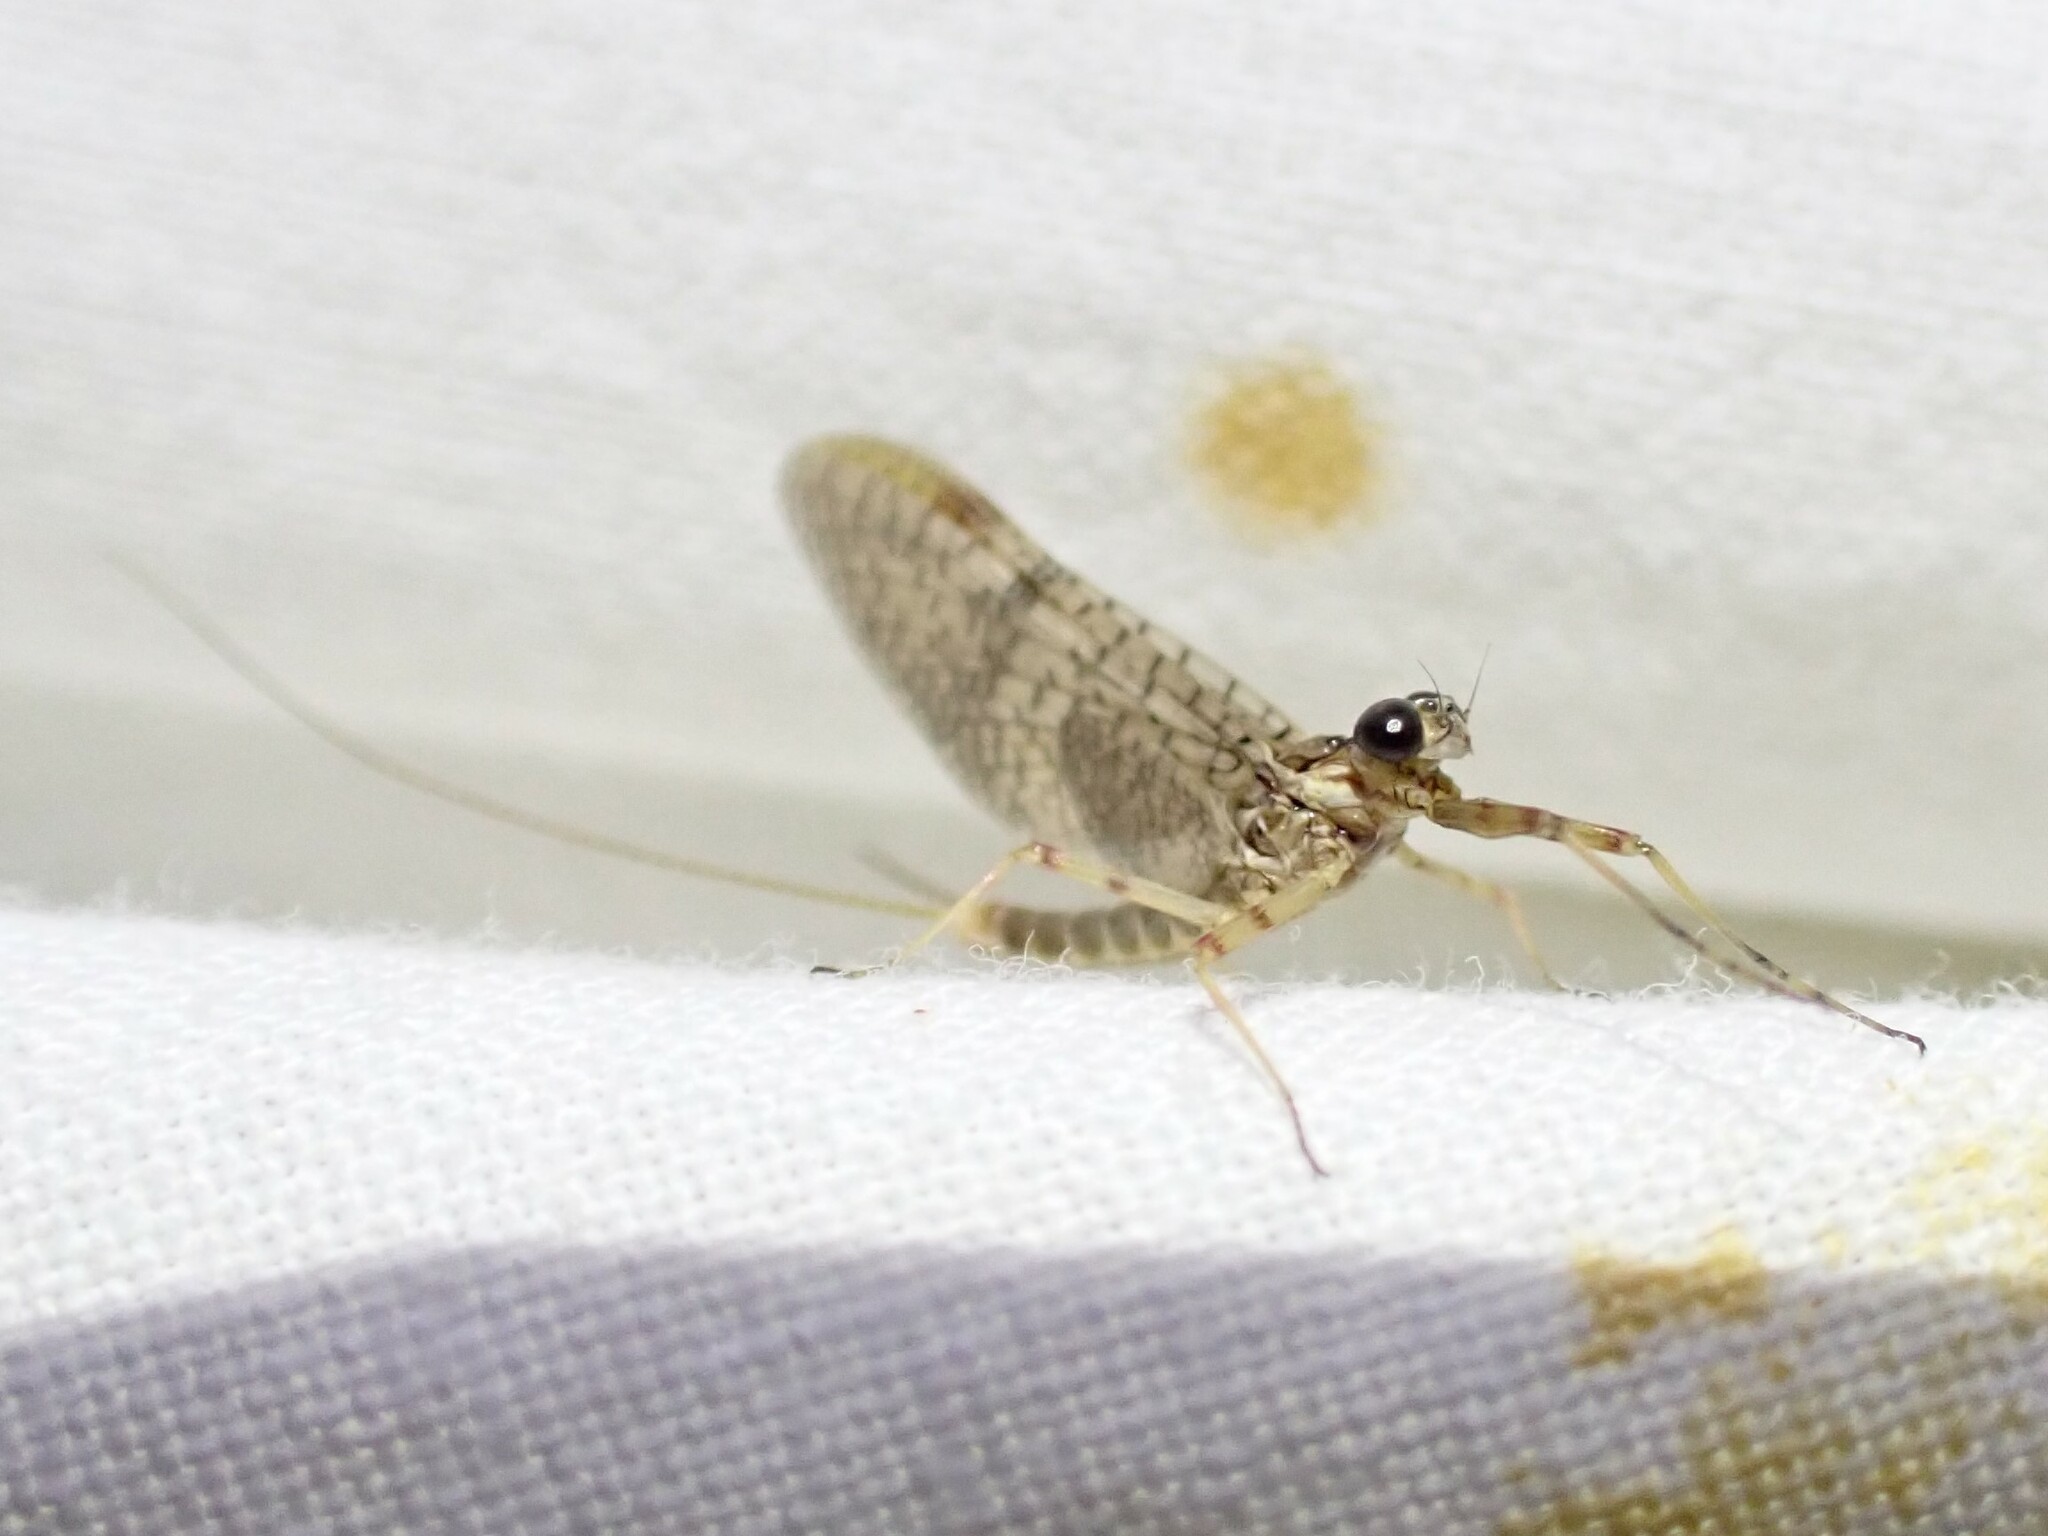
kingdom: Animalia
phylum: Arthropoda
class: Insecta
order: Ephemeroptera
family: Heptageniidae
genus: Stenonema
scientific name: Stenonema femoratum
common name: Dark cahill
